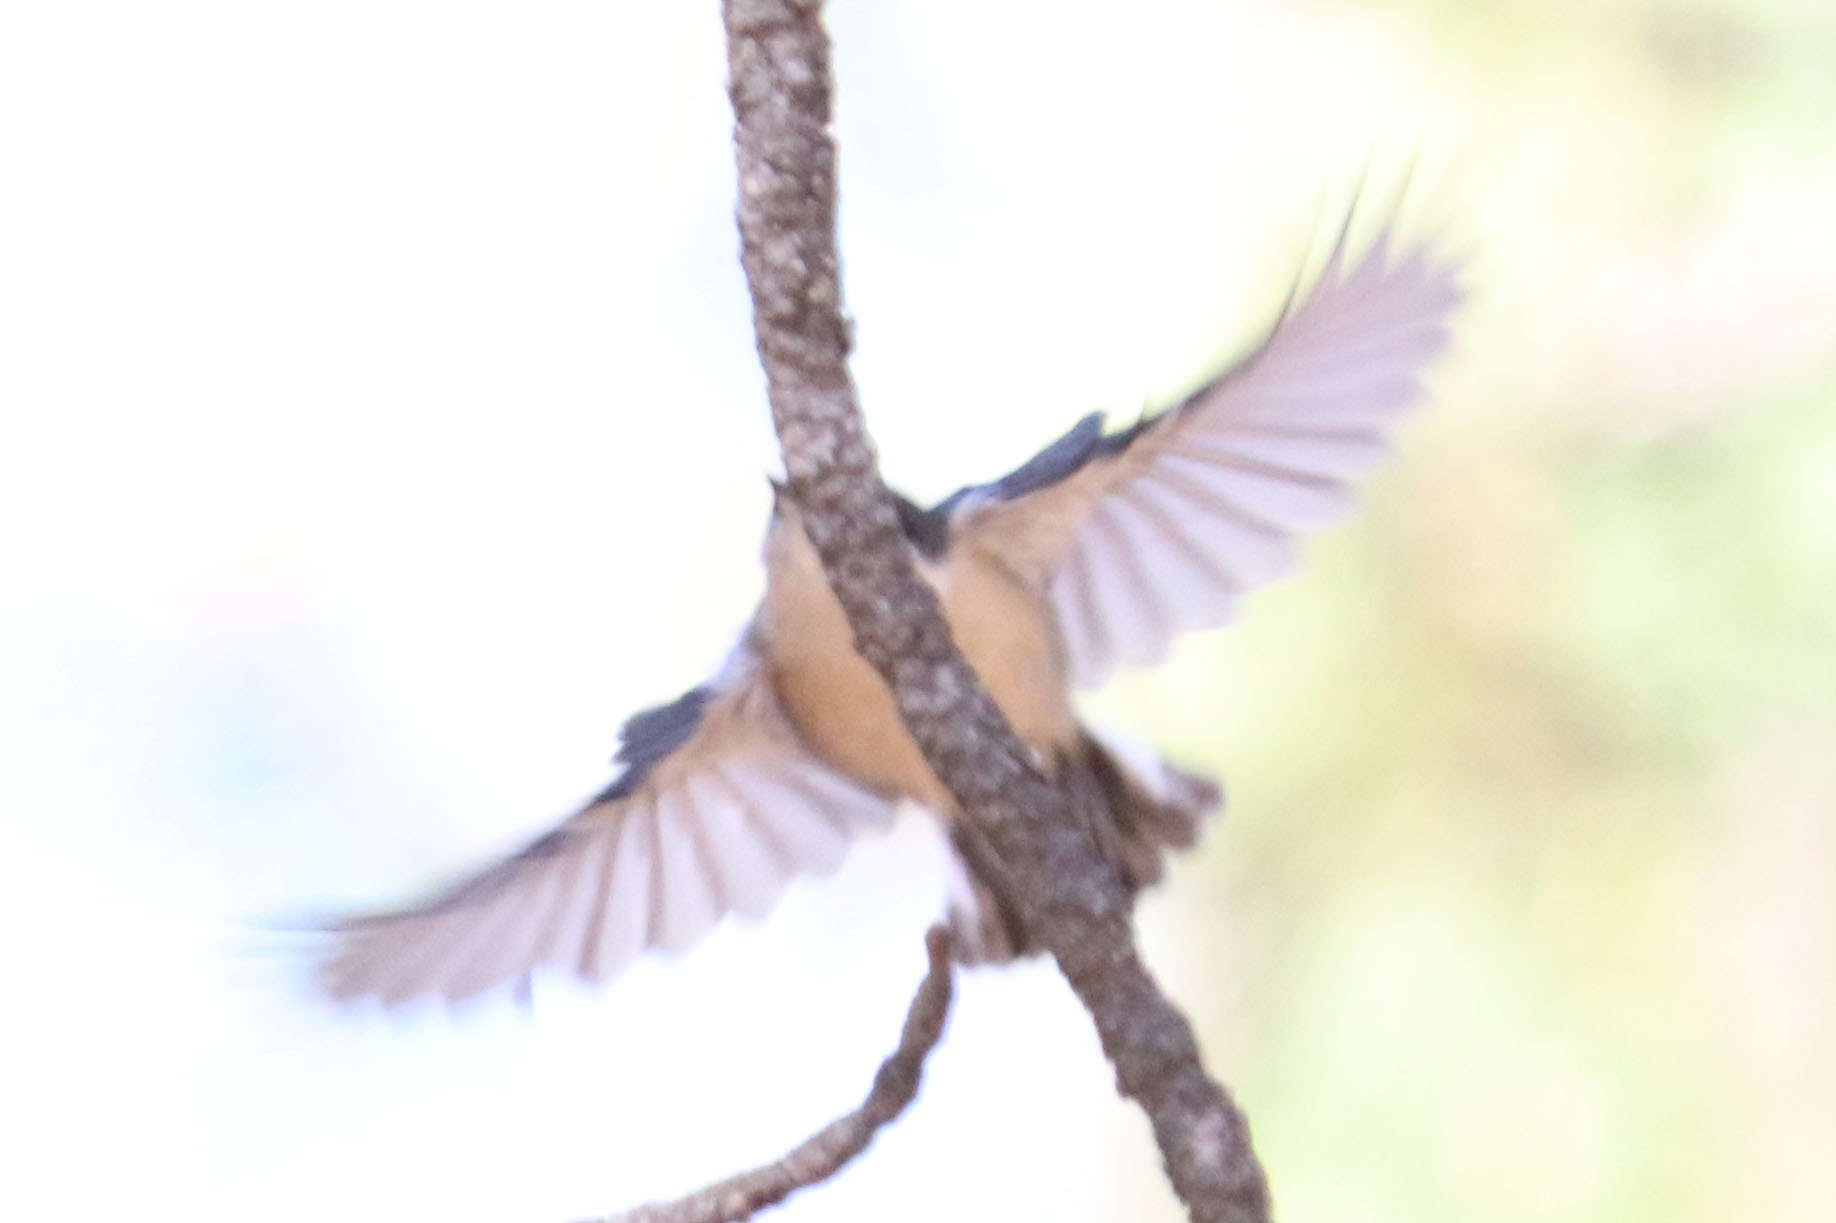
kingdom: Animalia
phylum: Chordata
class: Aves
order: Passeriformes
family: Sittidae
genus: Sitta
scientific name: Sitta pygmaea
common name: Pygmy nuthatch
